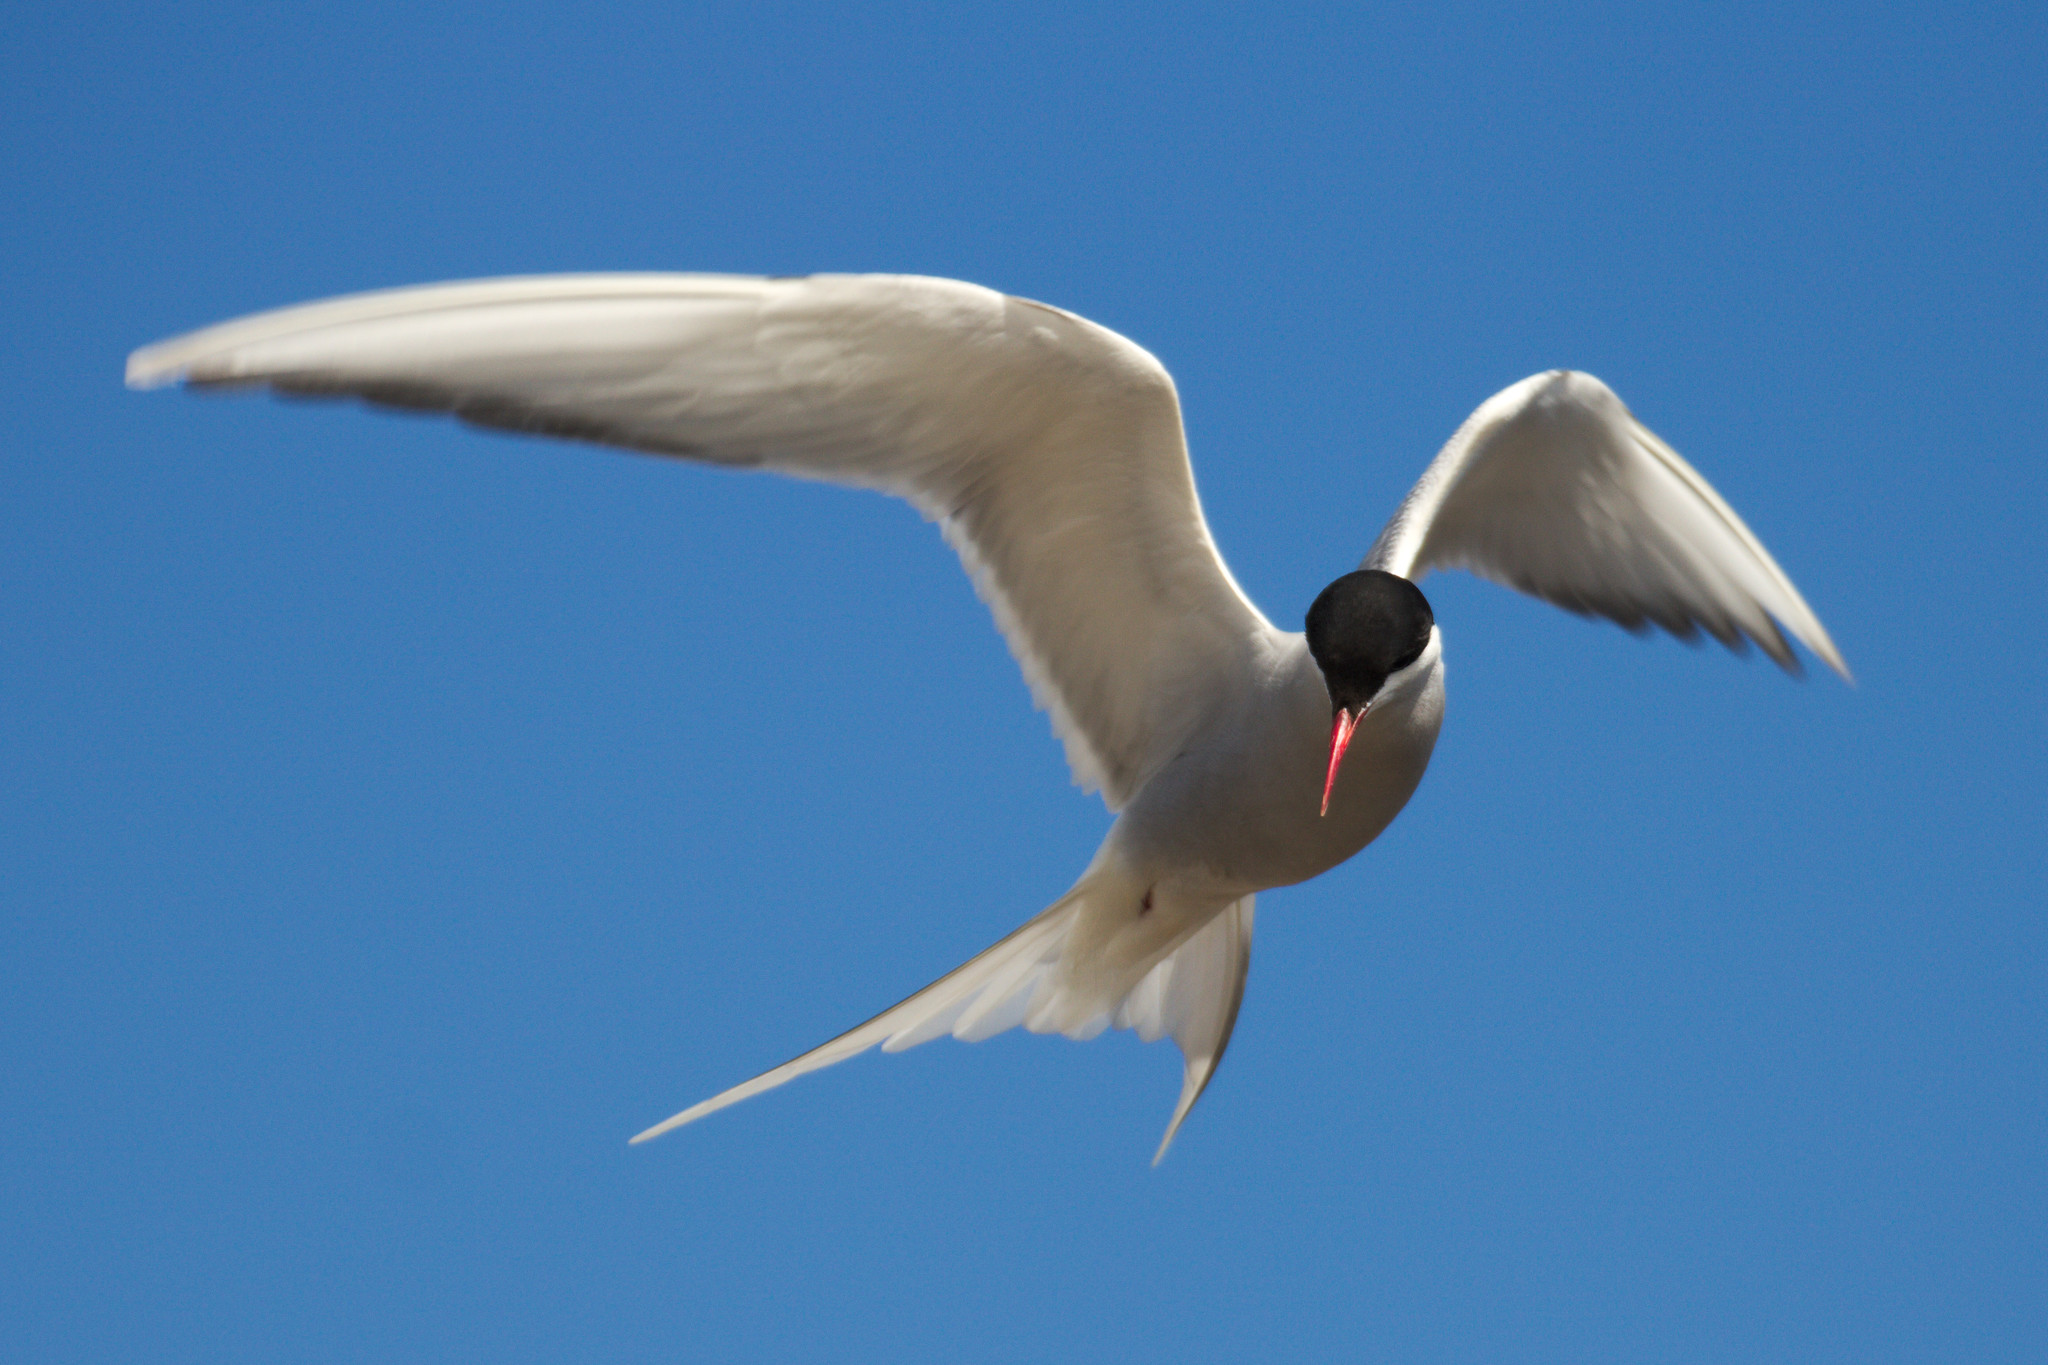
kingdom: Animalia
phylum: Chordata
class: Aves
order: Charadriiformes
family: Laridae
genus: Sterna
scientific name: Sterna paradisaea
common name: Arctic tern
